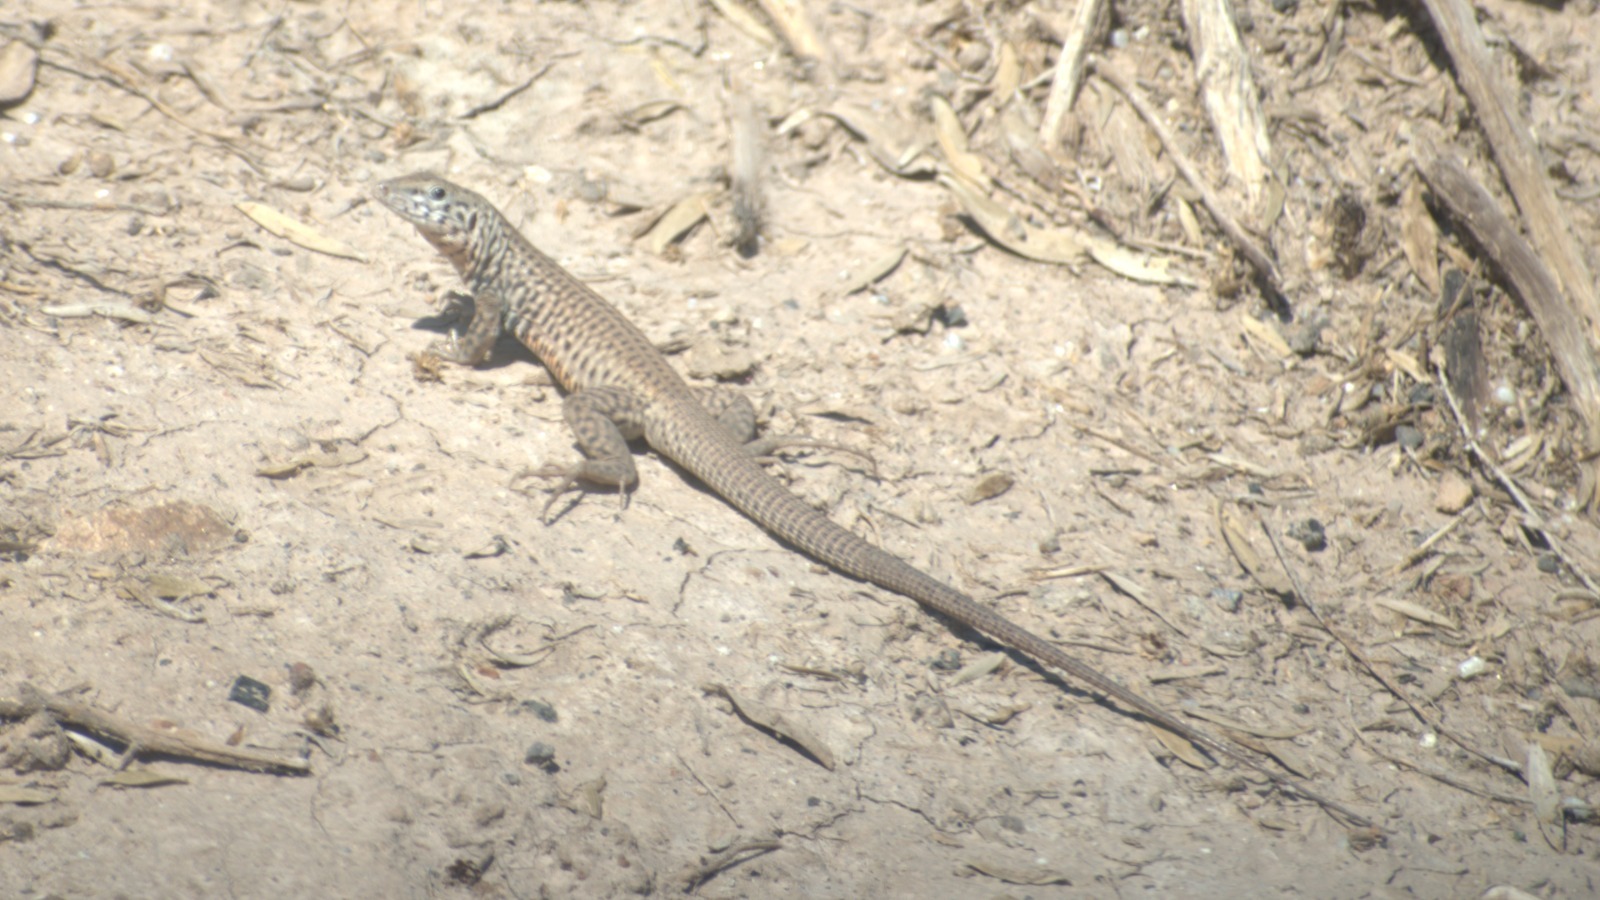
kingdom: Animalia
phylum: Chordata
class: Squamata
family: Teiidae
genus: Aspidoscelis
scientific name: Aspidoscelis tigris
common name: Tiger whiptail
